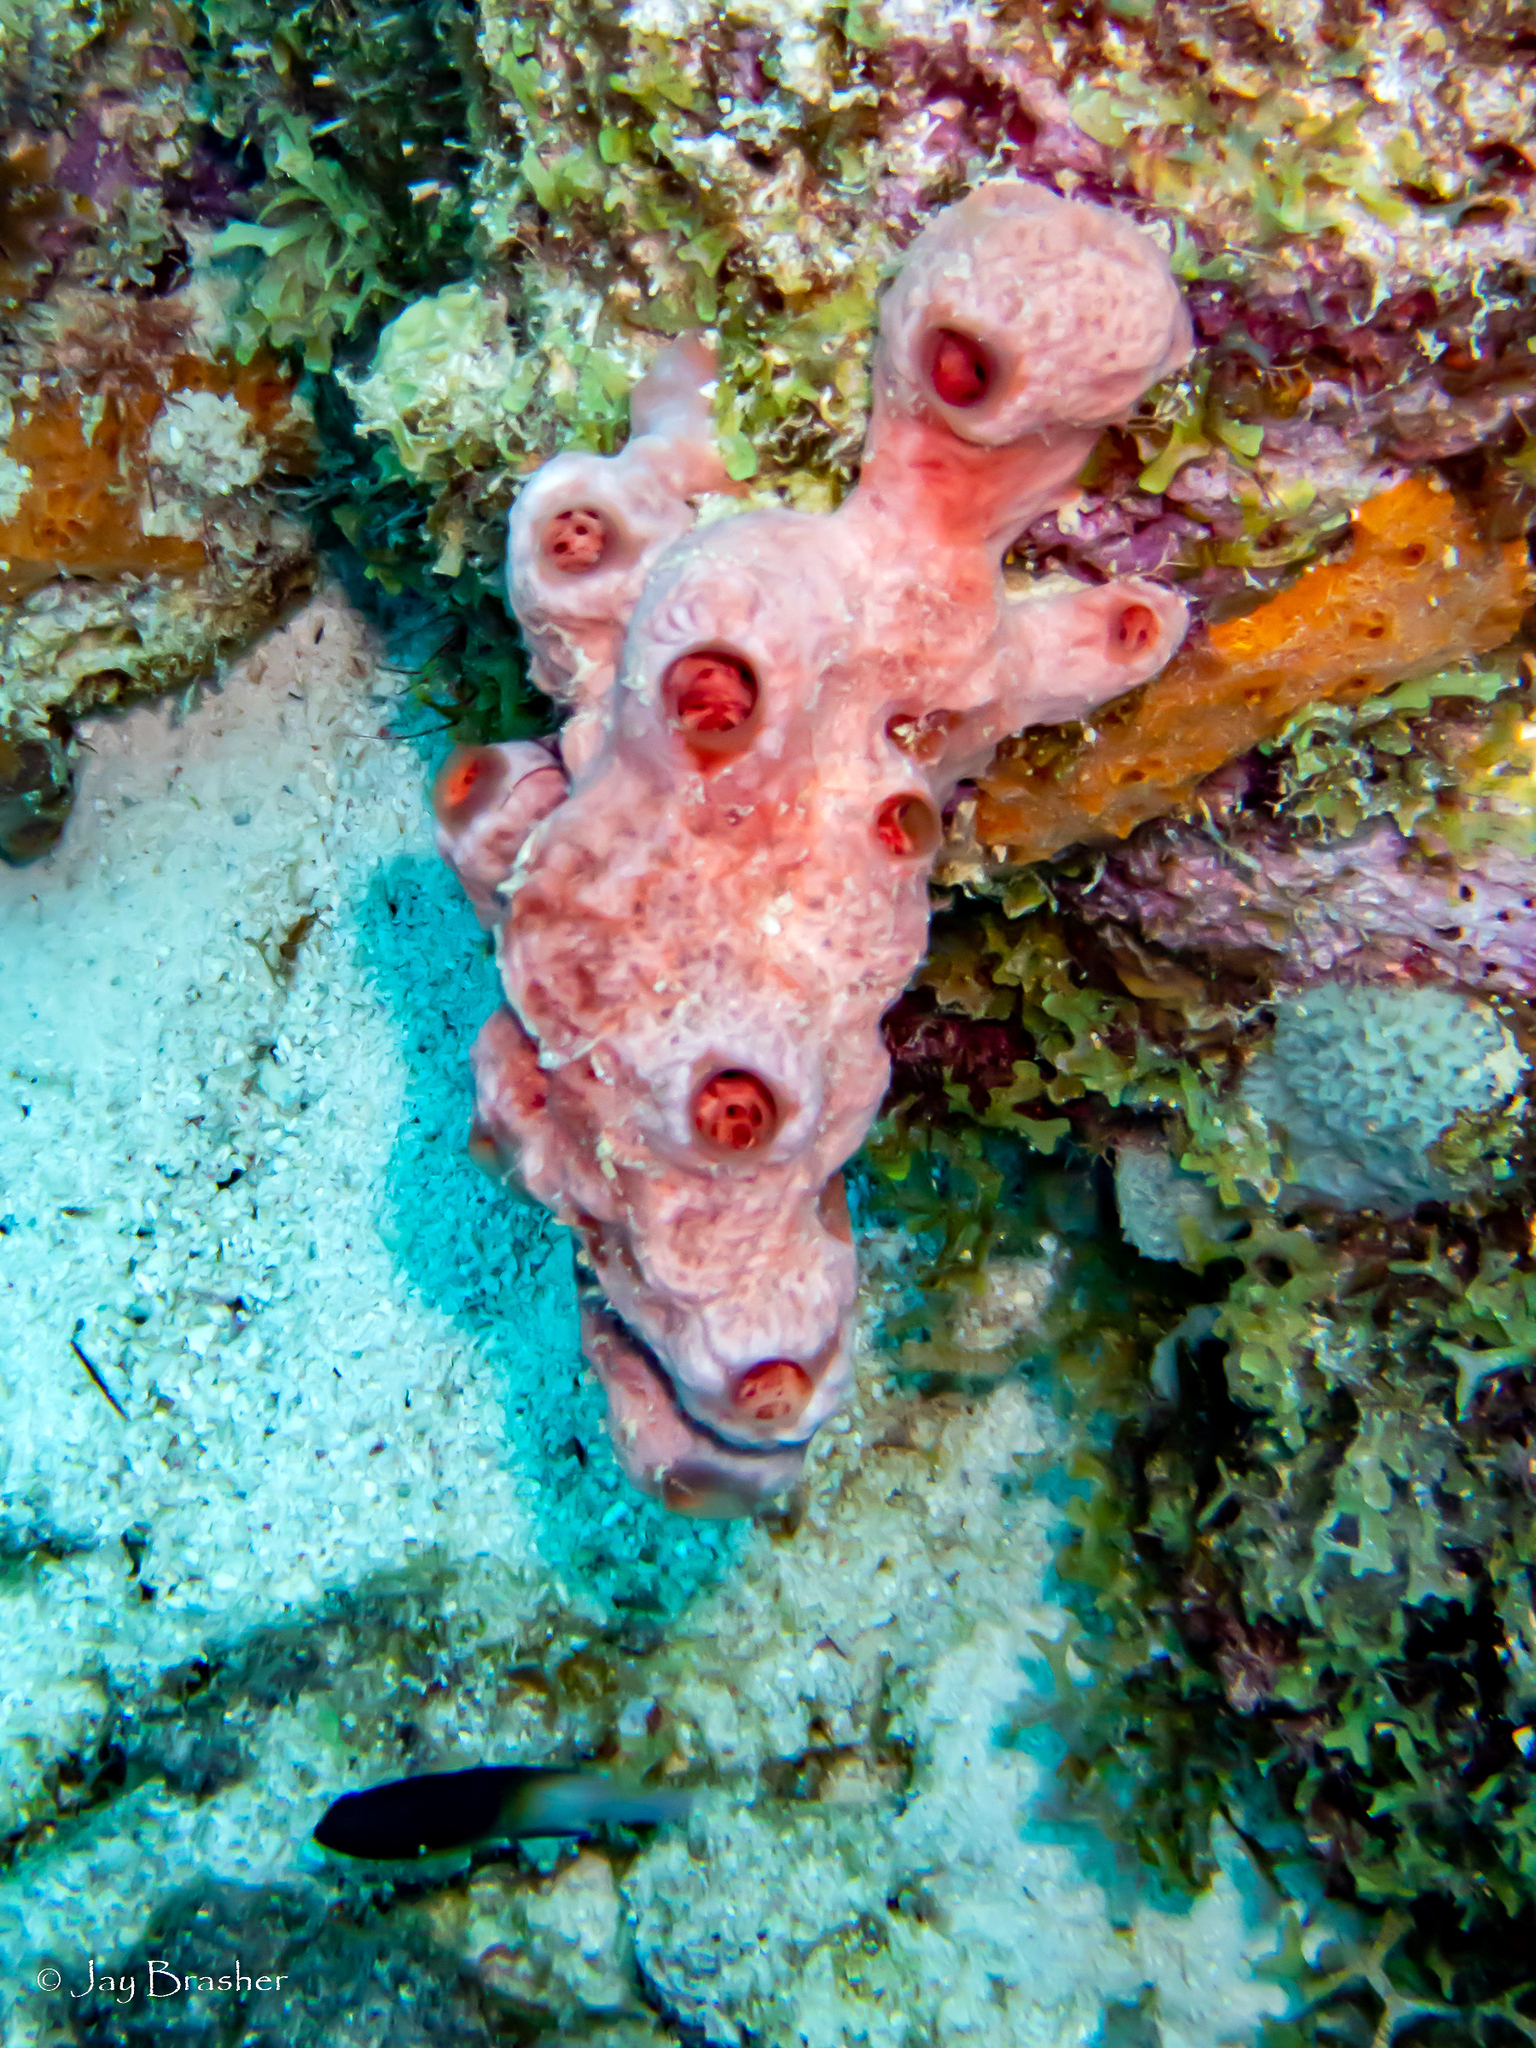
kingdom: Animalia
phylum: Porifera
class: Demospongiae
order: Poecilosclerida
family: Desmacididae
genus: Desmapsamma
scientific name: Desmapsamma anchorata
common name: Lumpy overgrowing sponge
